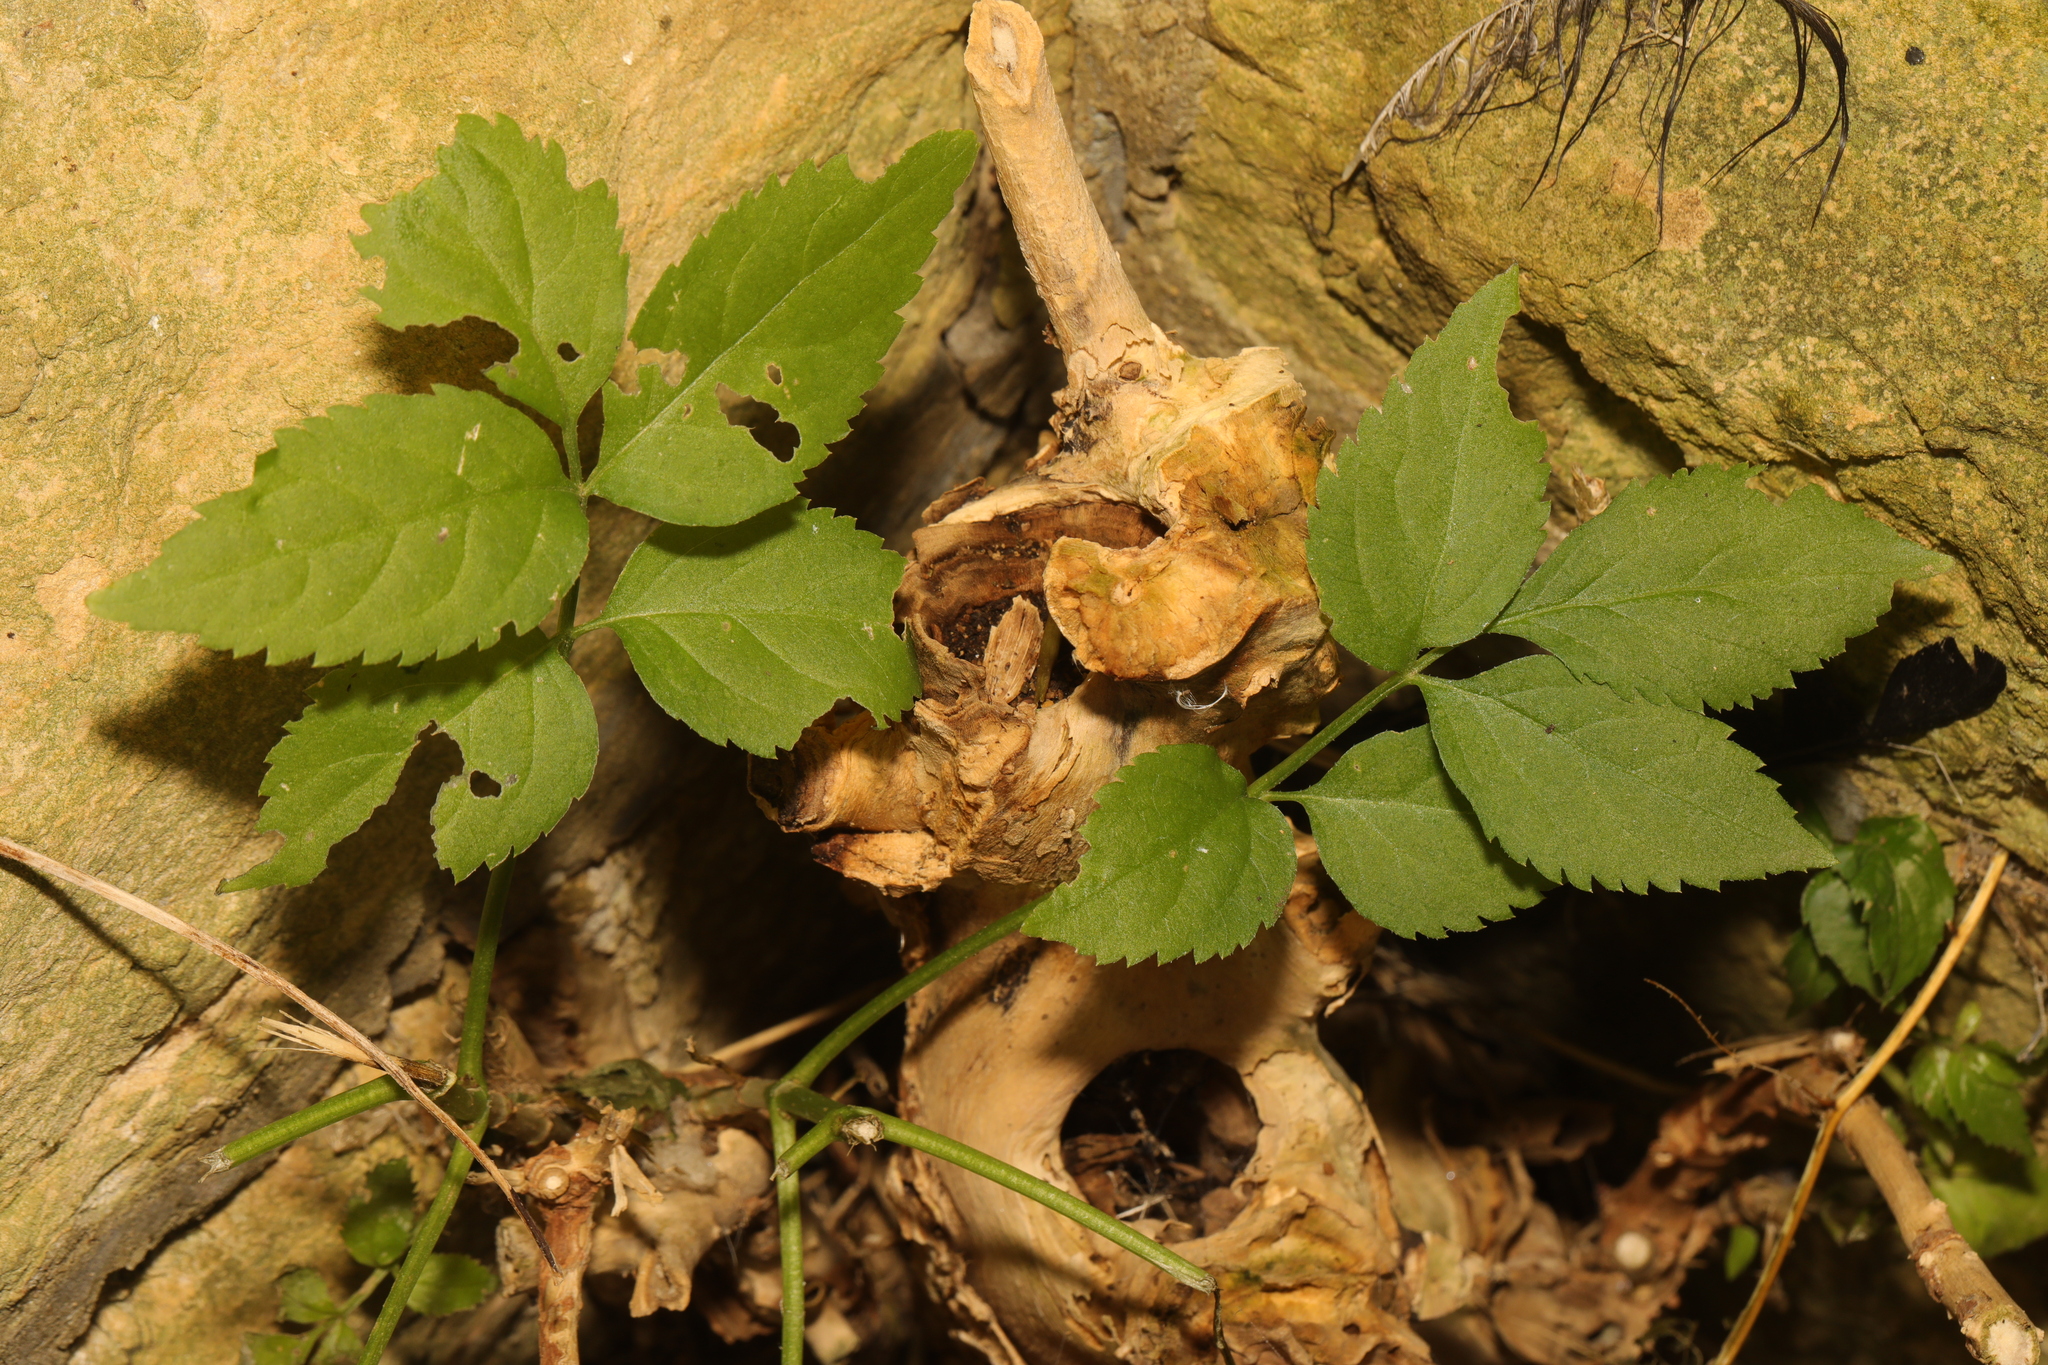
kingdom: Plantae
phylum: Tracheophyta
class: Magnoliopsida
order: Dipsacales
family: Viburnaceae
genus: Sambucus
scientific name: Sambucus nigra
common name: Elder
